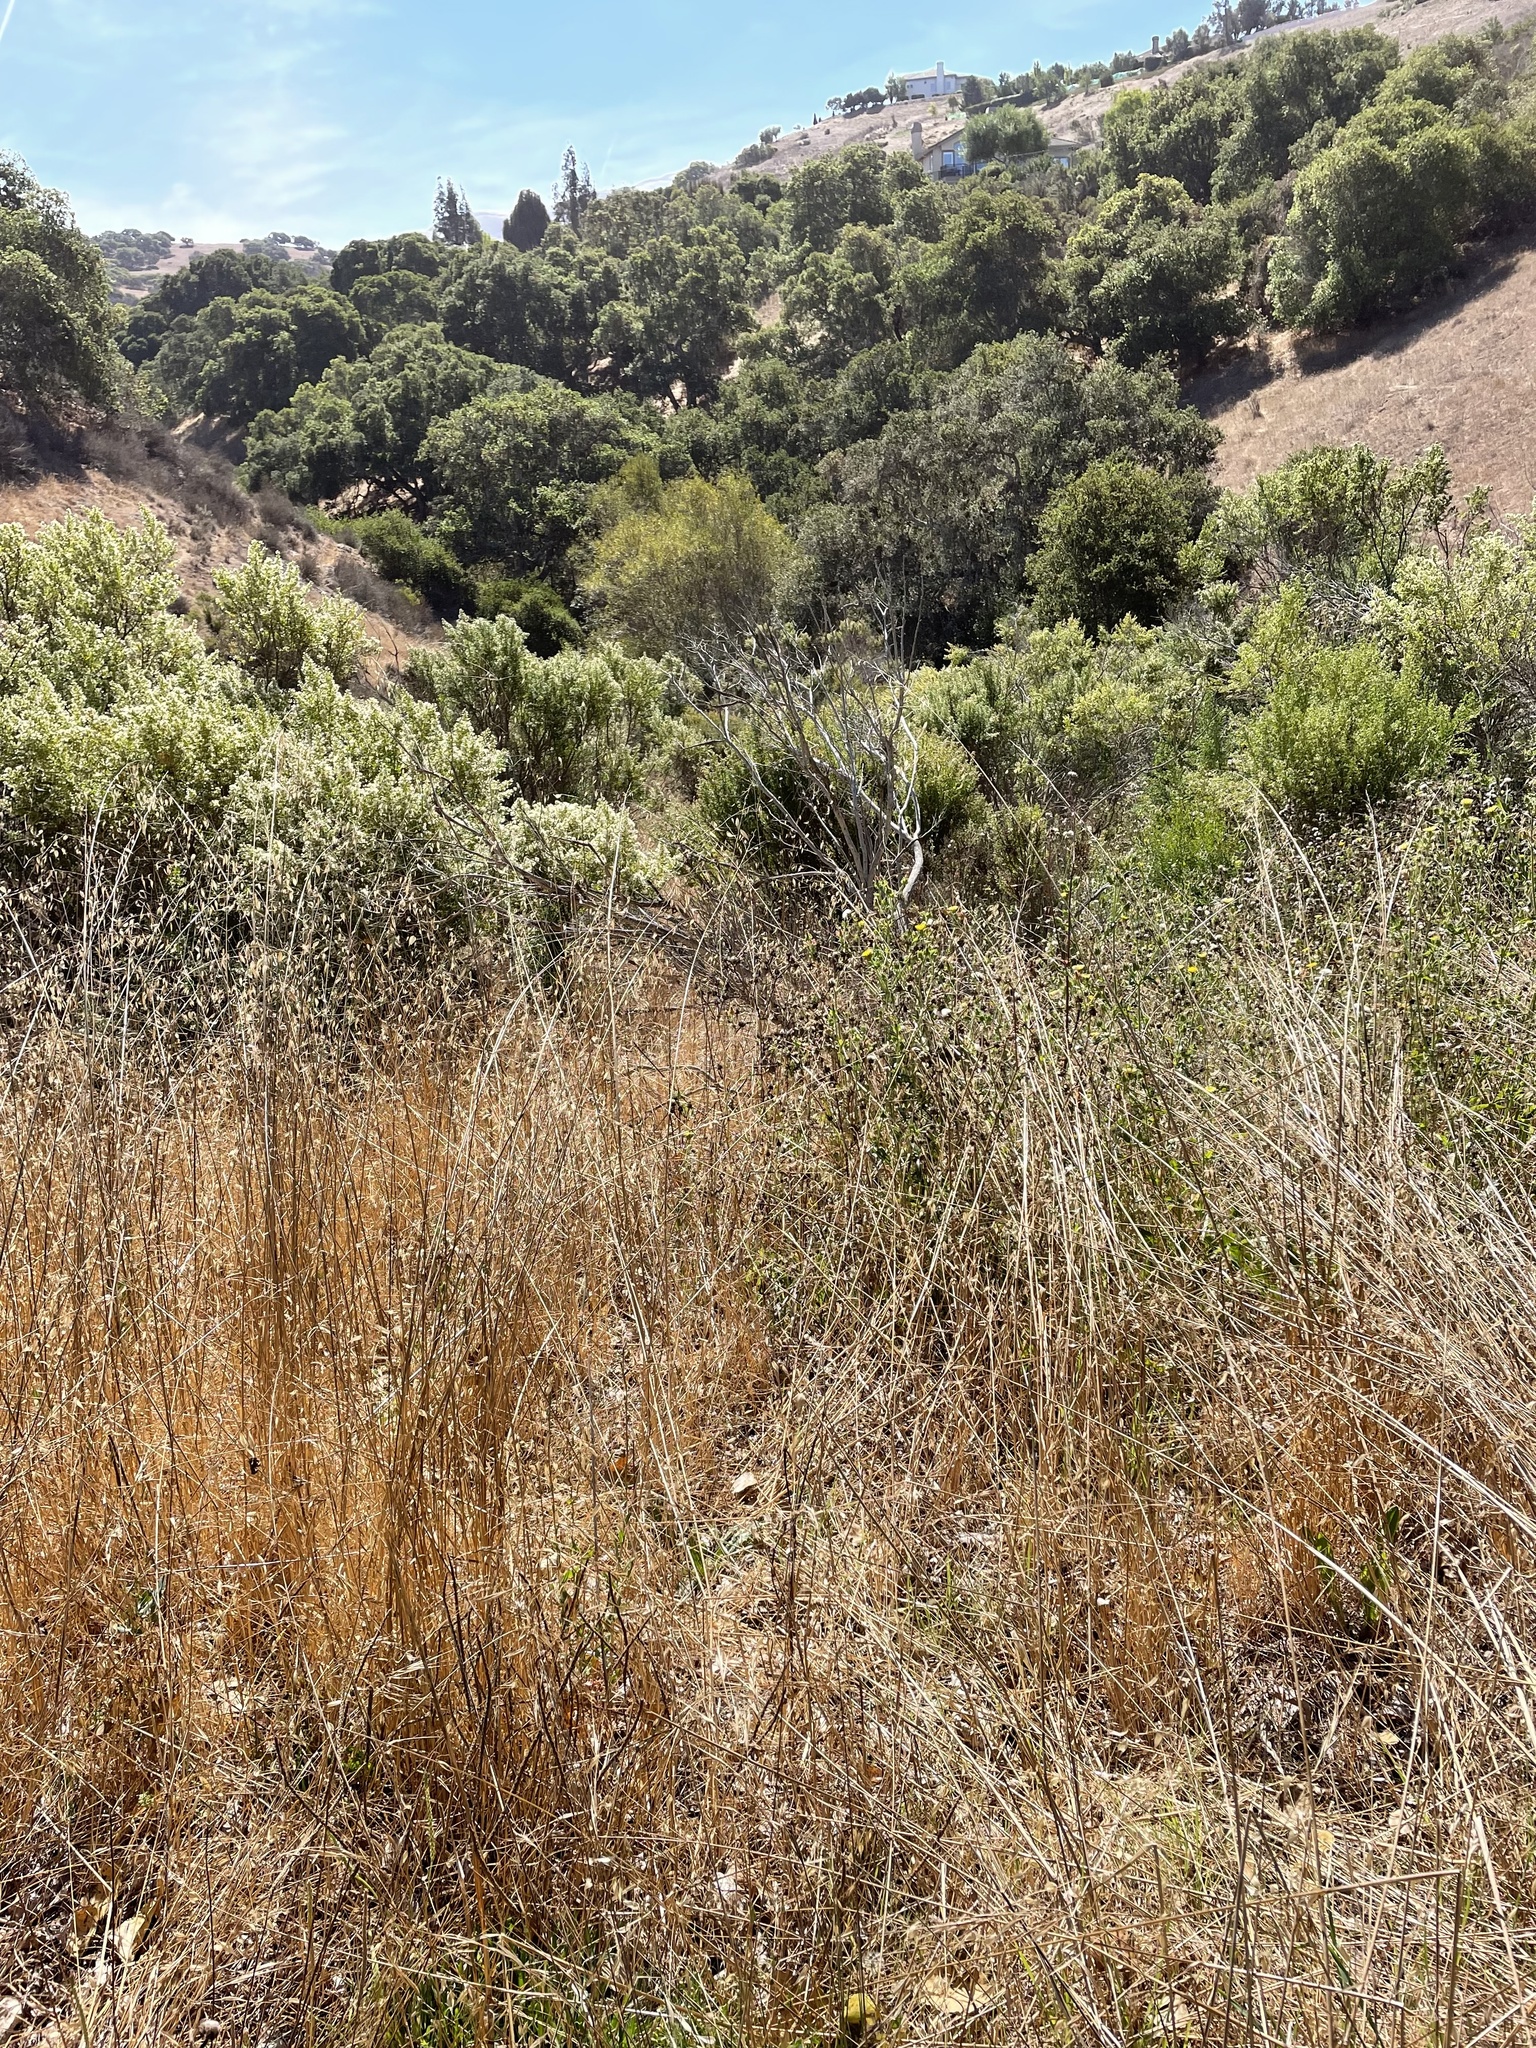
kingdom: Animalia
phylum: Chordata
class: Mammalia
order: Artiodactyla
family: Suidae
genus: Sus
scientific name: Sus scrofa
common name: Wild boar
